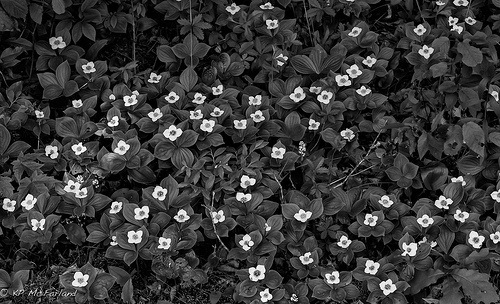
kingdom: Plantae
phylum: Tracheophyta
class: Magnoliopsida
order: Cornales
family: Cornaceae
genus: Cornus
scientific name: Cornus canadensis
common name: Creeping dogwood
